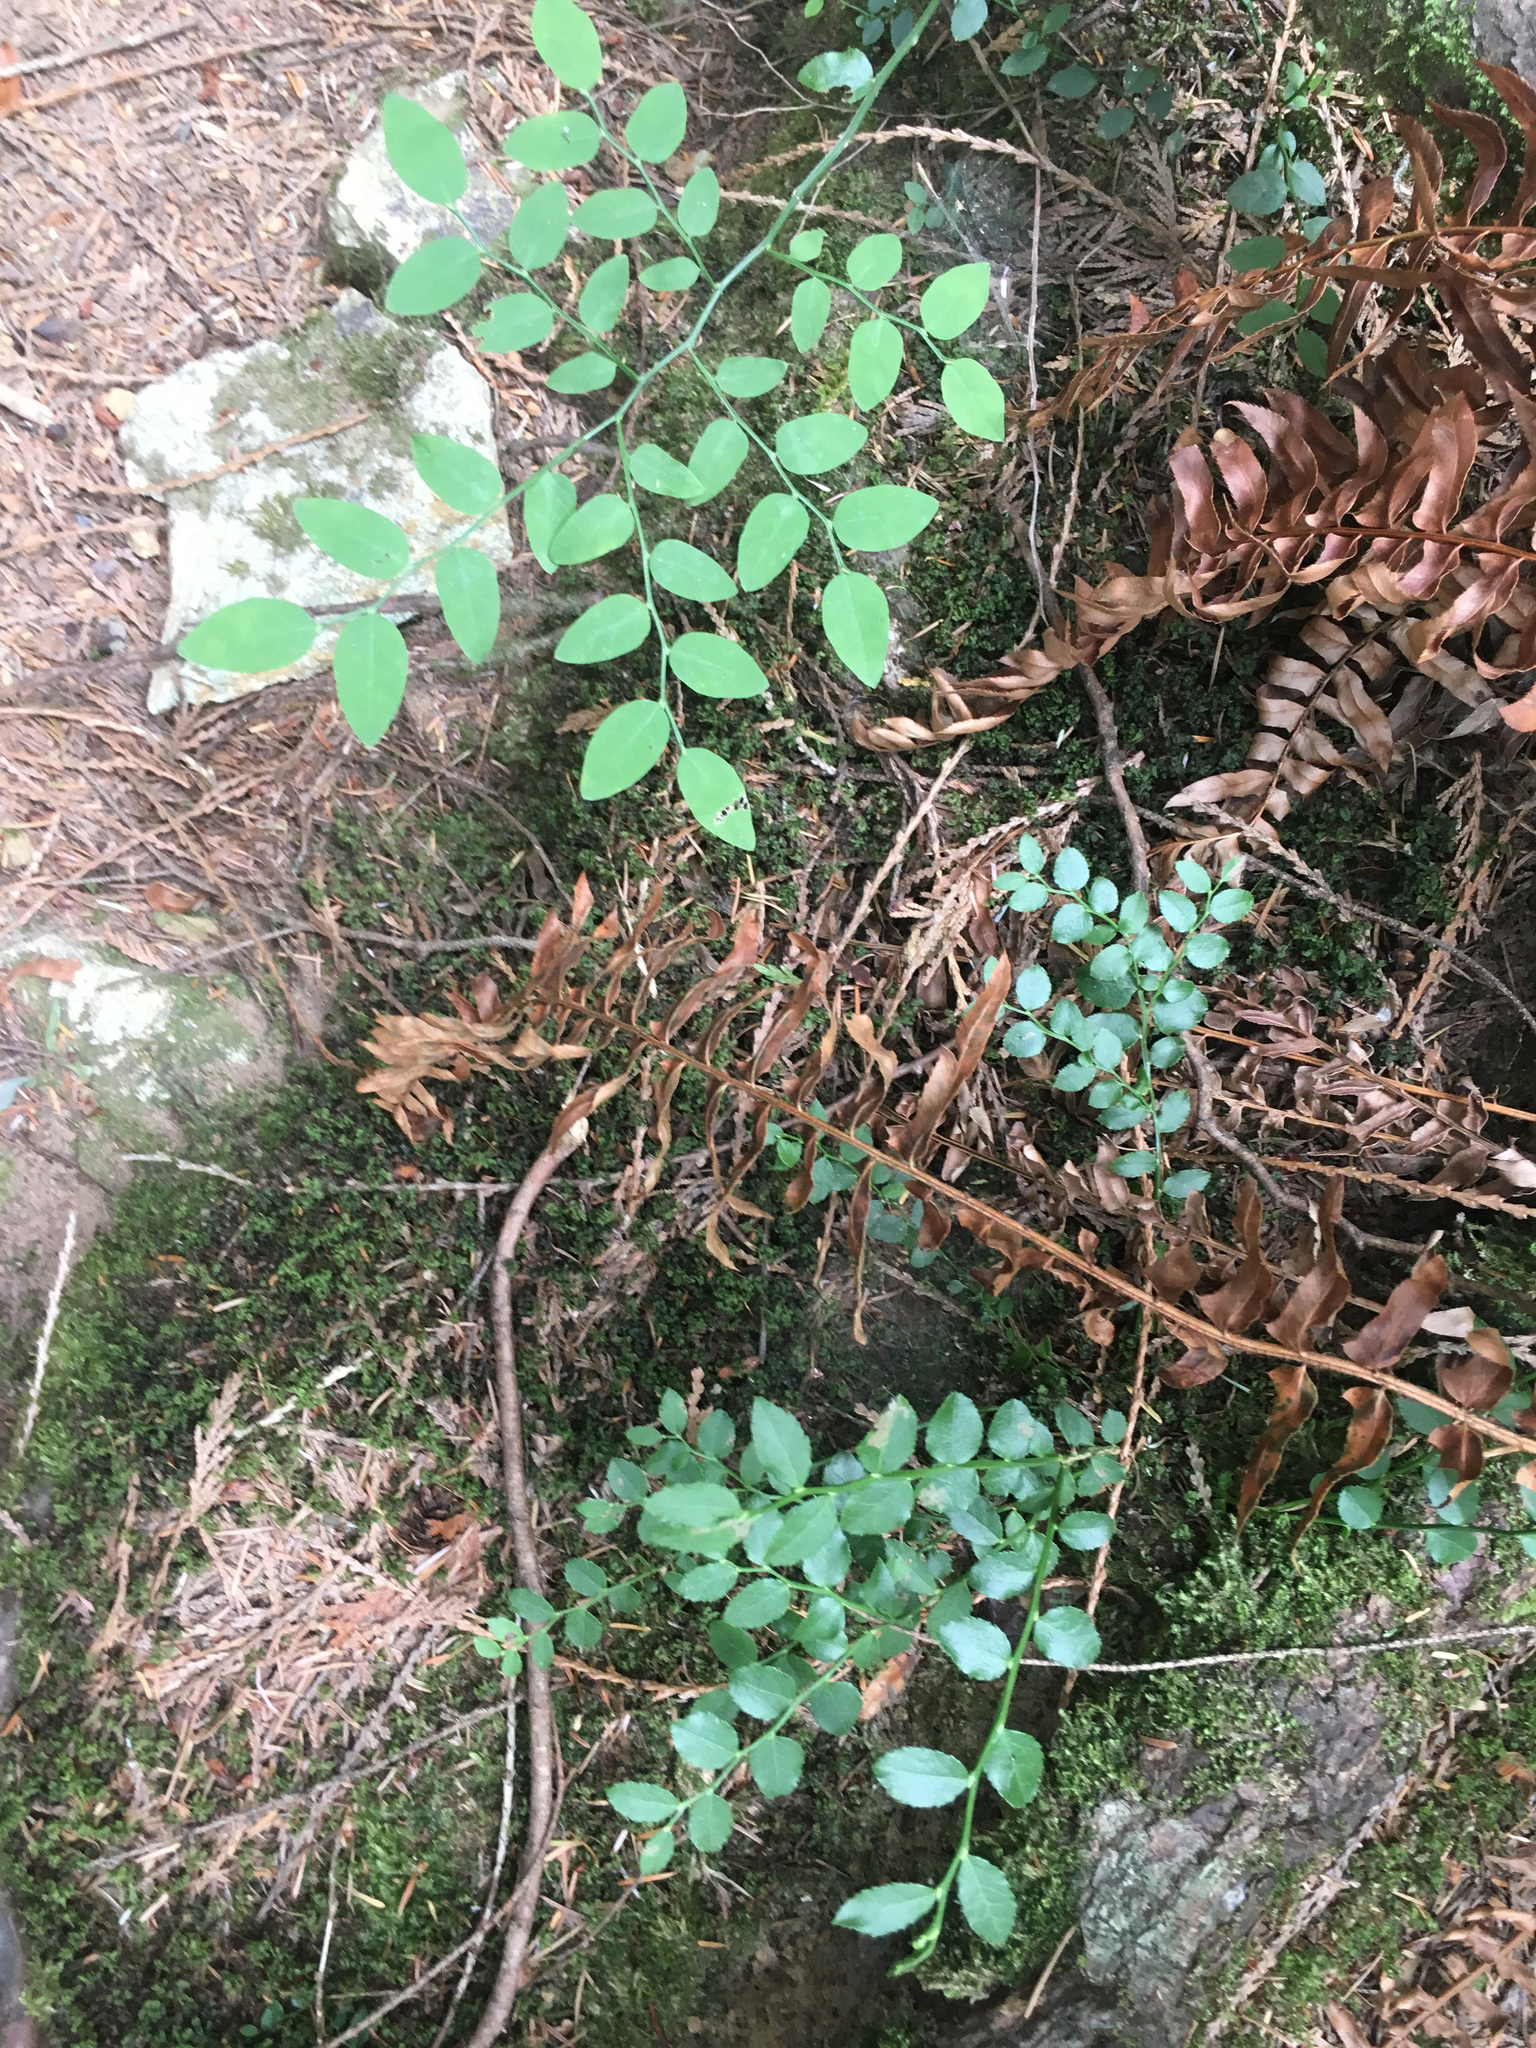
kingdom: Plantae
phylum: Tracheophyta
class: Magnoliopsida
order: Ericales
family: Ericaceae
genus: Vaccinium
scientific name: Vaccinium parvifolium
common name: Red-huckleberry
